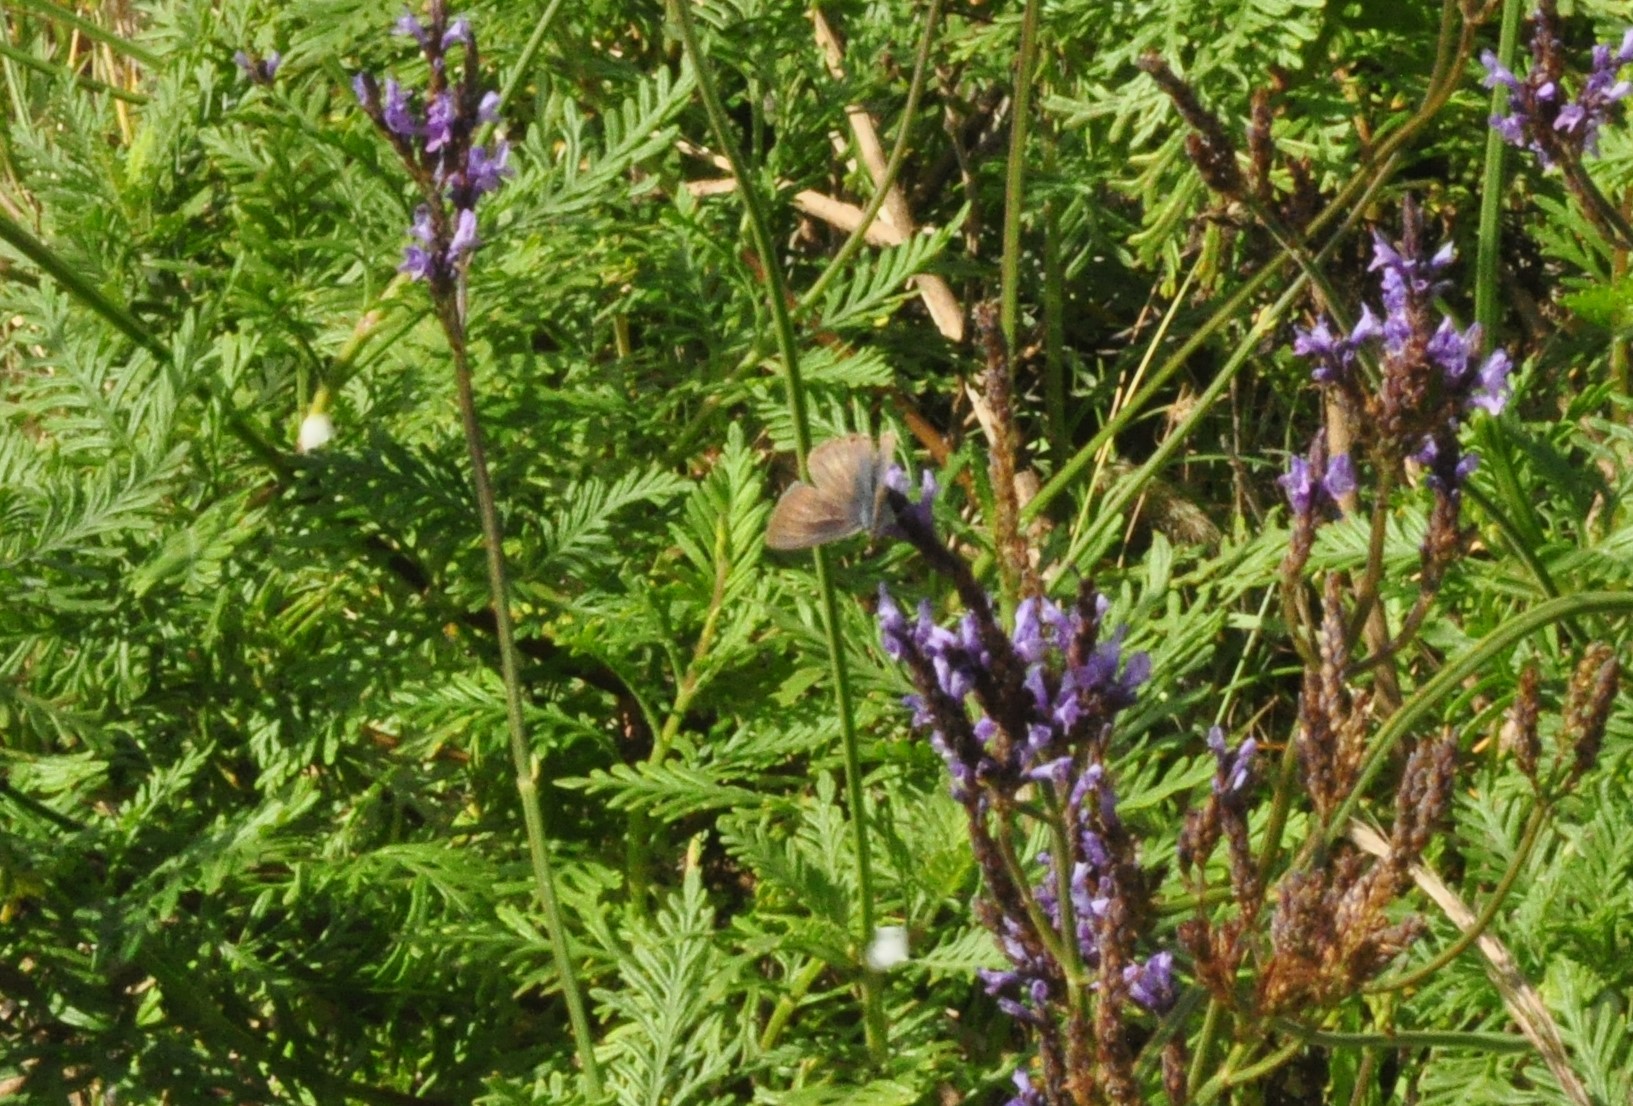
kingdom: Animalia
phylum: Arthropoda
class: Insecta
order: Lepidoptera
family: Lycaenidae
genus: Lampides
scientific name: Lampides boeticus
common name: Long-tailed blue
